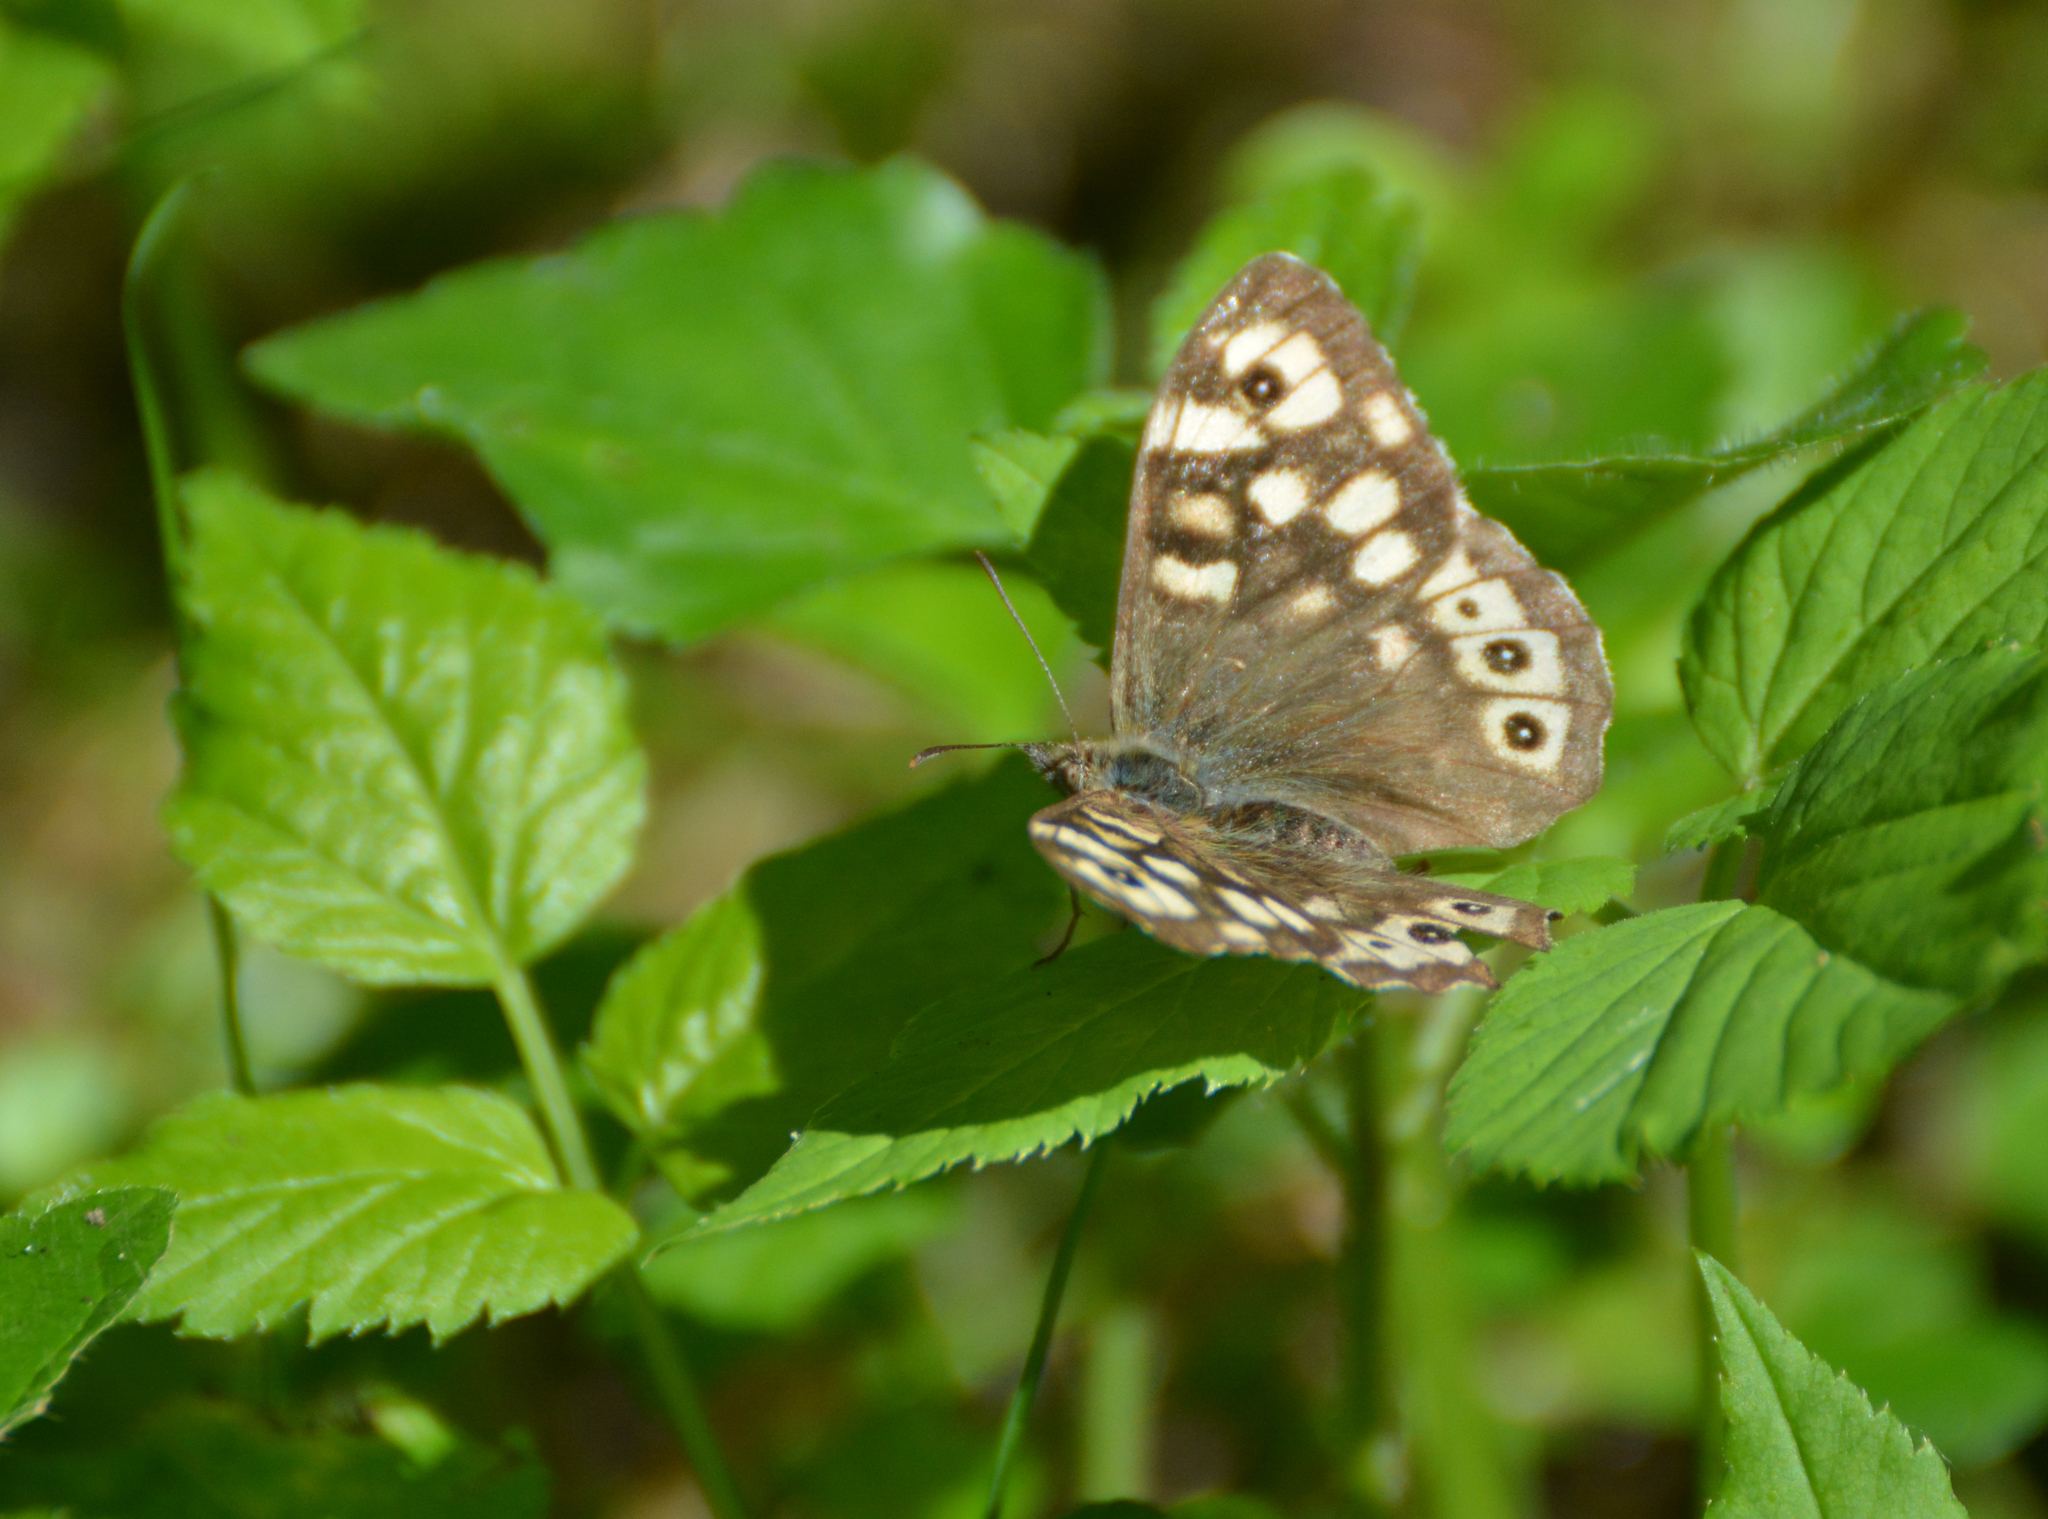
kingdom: Animalia
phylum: Arthropoda
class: Insecta
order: Lepidoptera
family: Nymphalidae
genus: Pararge
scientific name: Pararge aegeria
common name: Speckled wood
